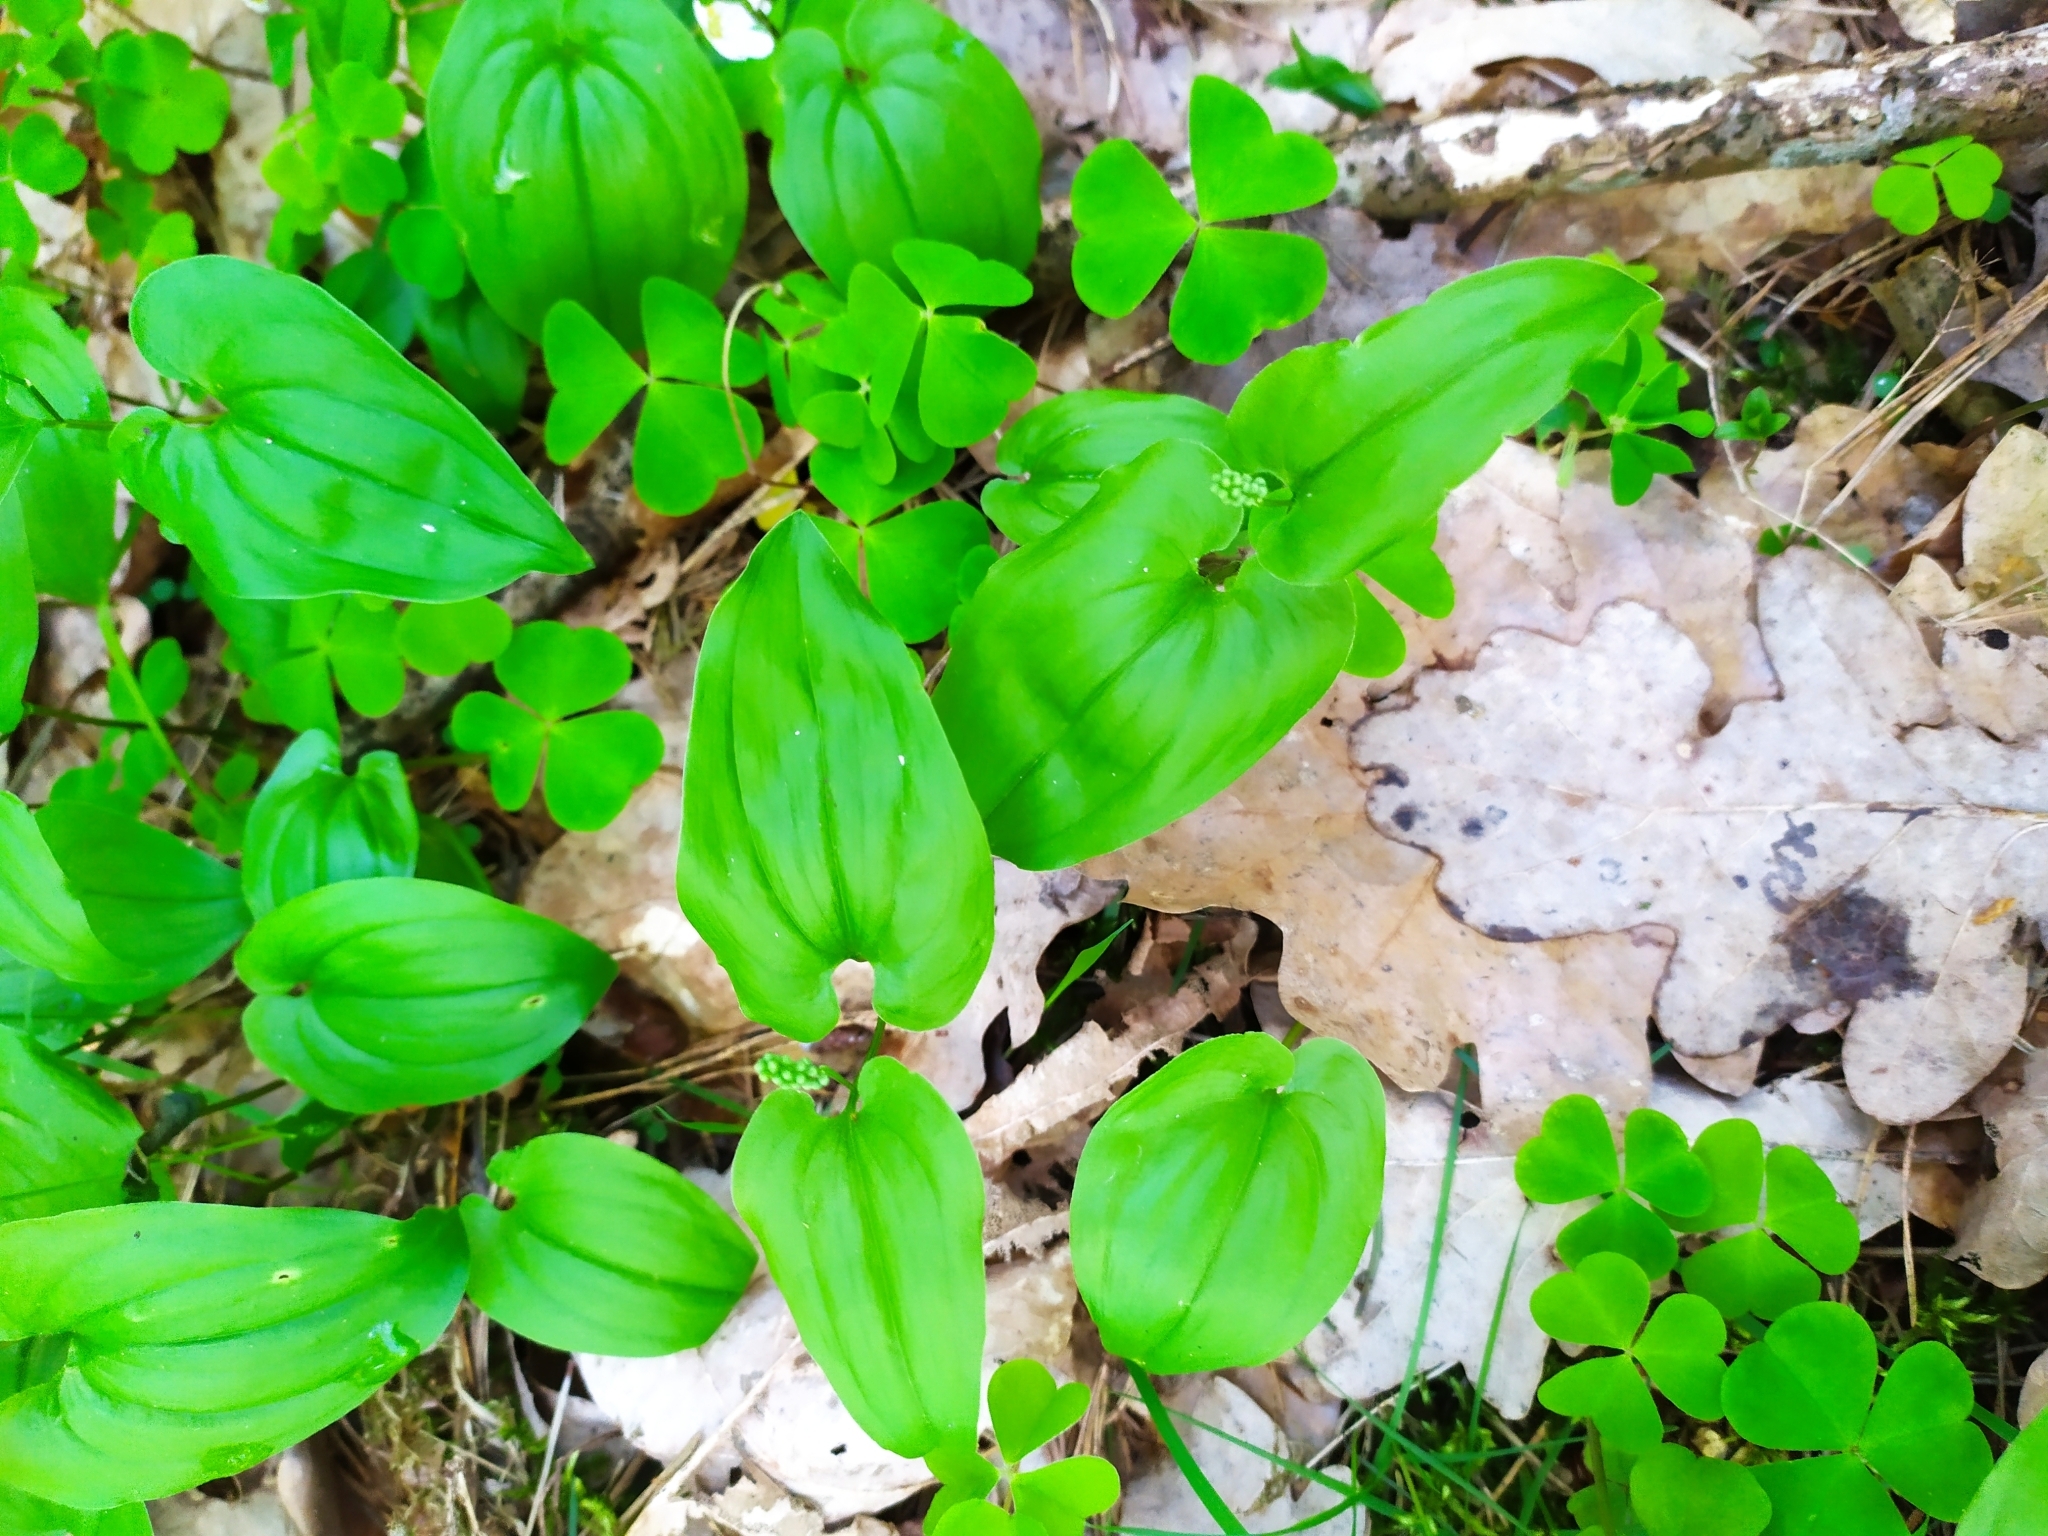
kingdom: Plantae
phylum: Tracheophyta
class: Liliopsida
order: Asparagales
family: Asparagaceae
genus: Maianthemum
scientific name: Maianthemum bifolium
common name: May lily
